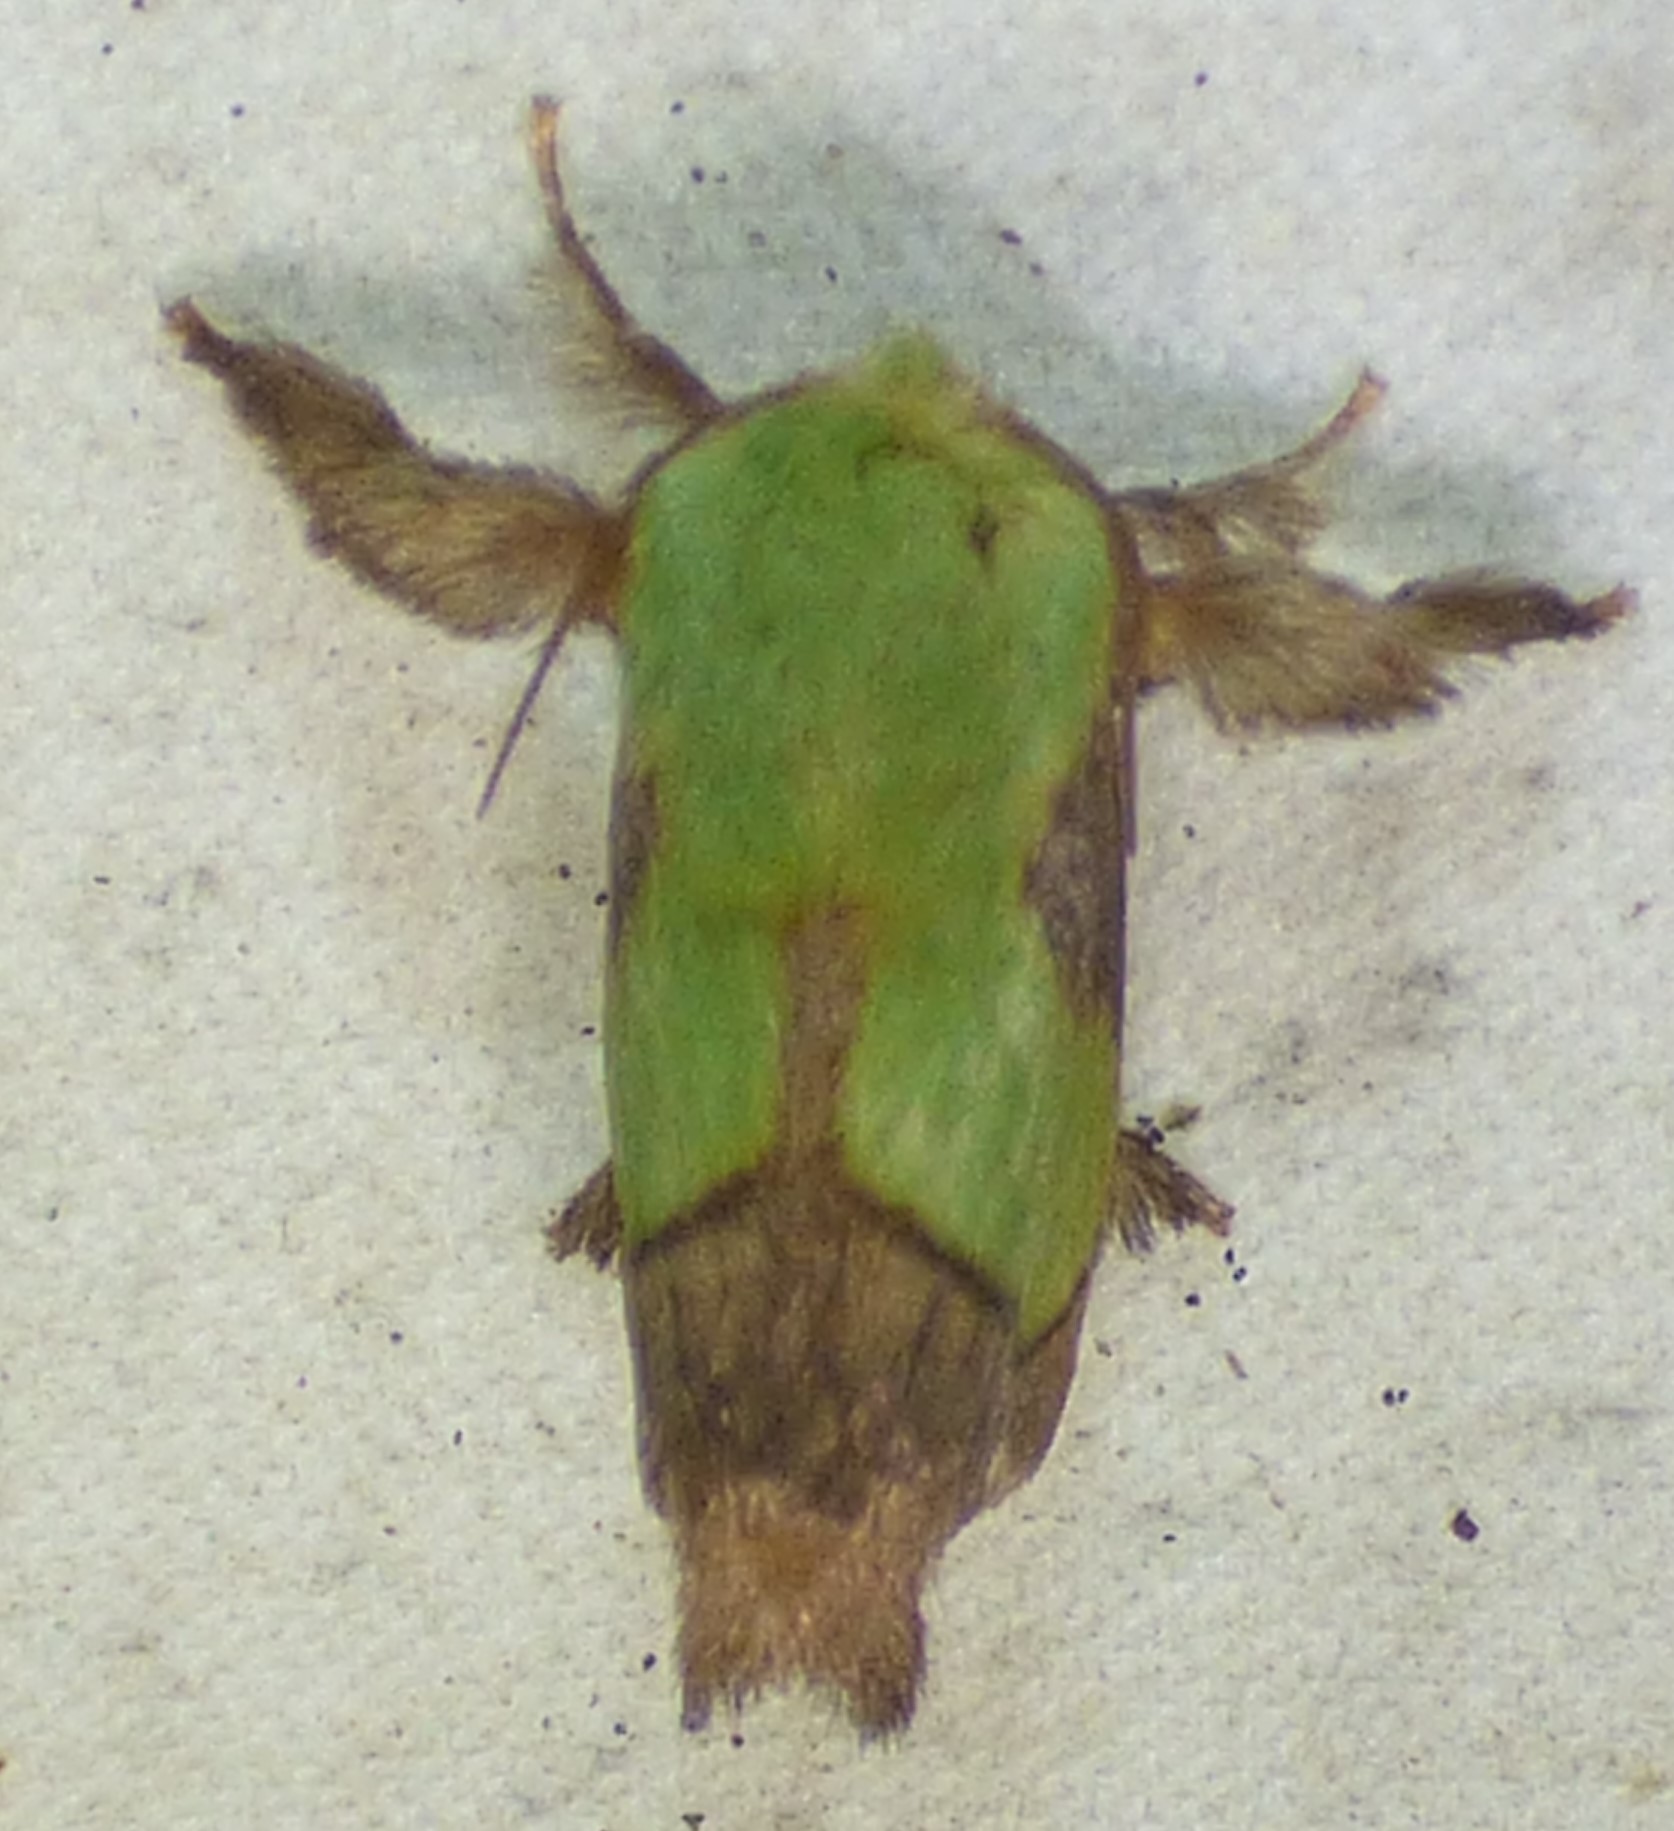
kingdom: Animalia
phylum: Arthropoda
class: Insecta
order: Lepidoptera
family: Limacodidae
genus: Parasa
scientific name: Parasa chloris
